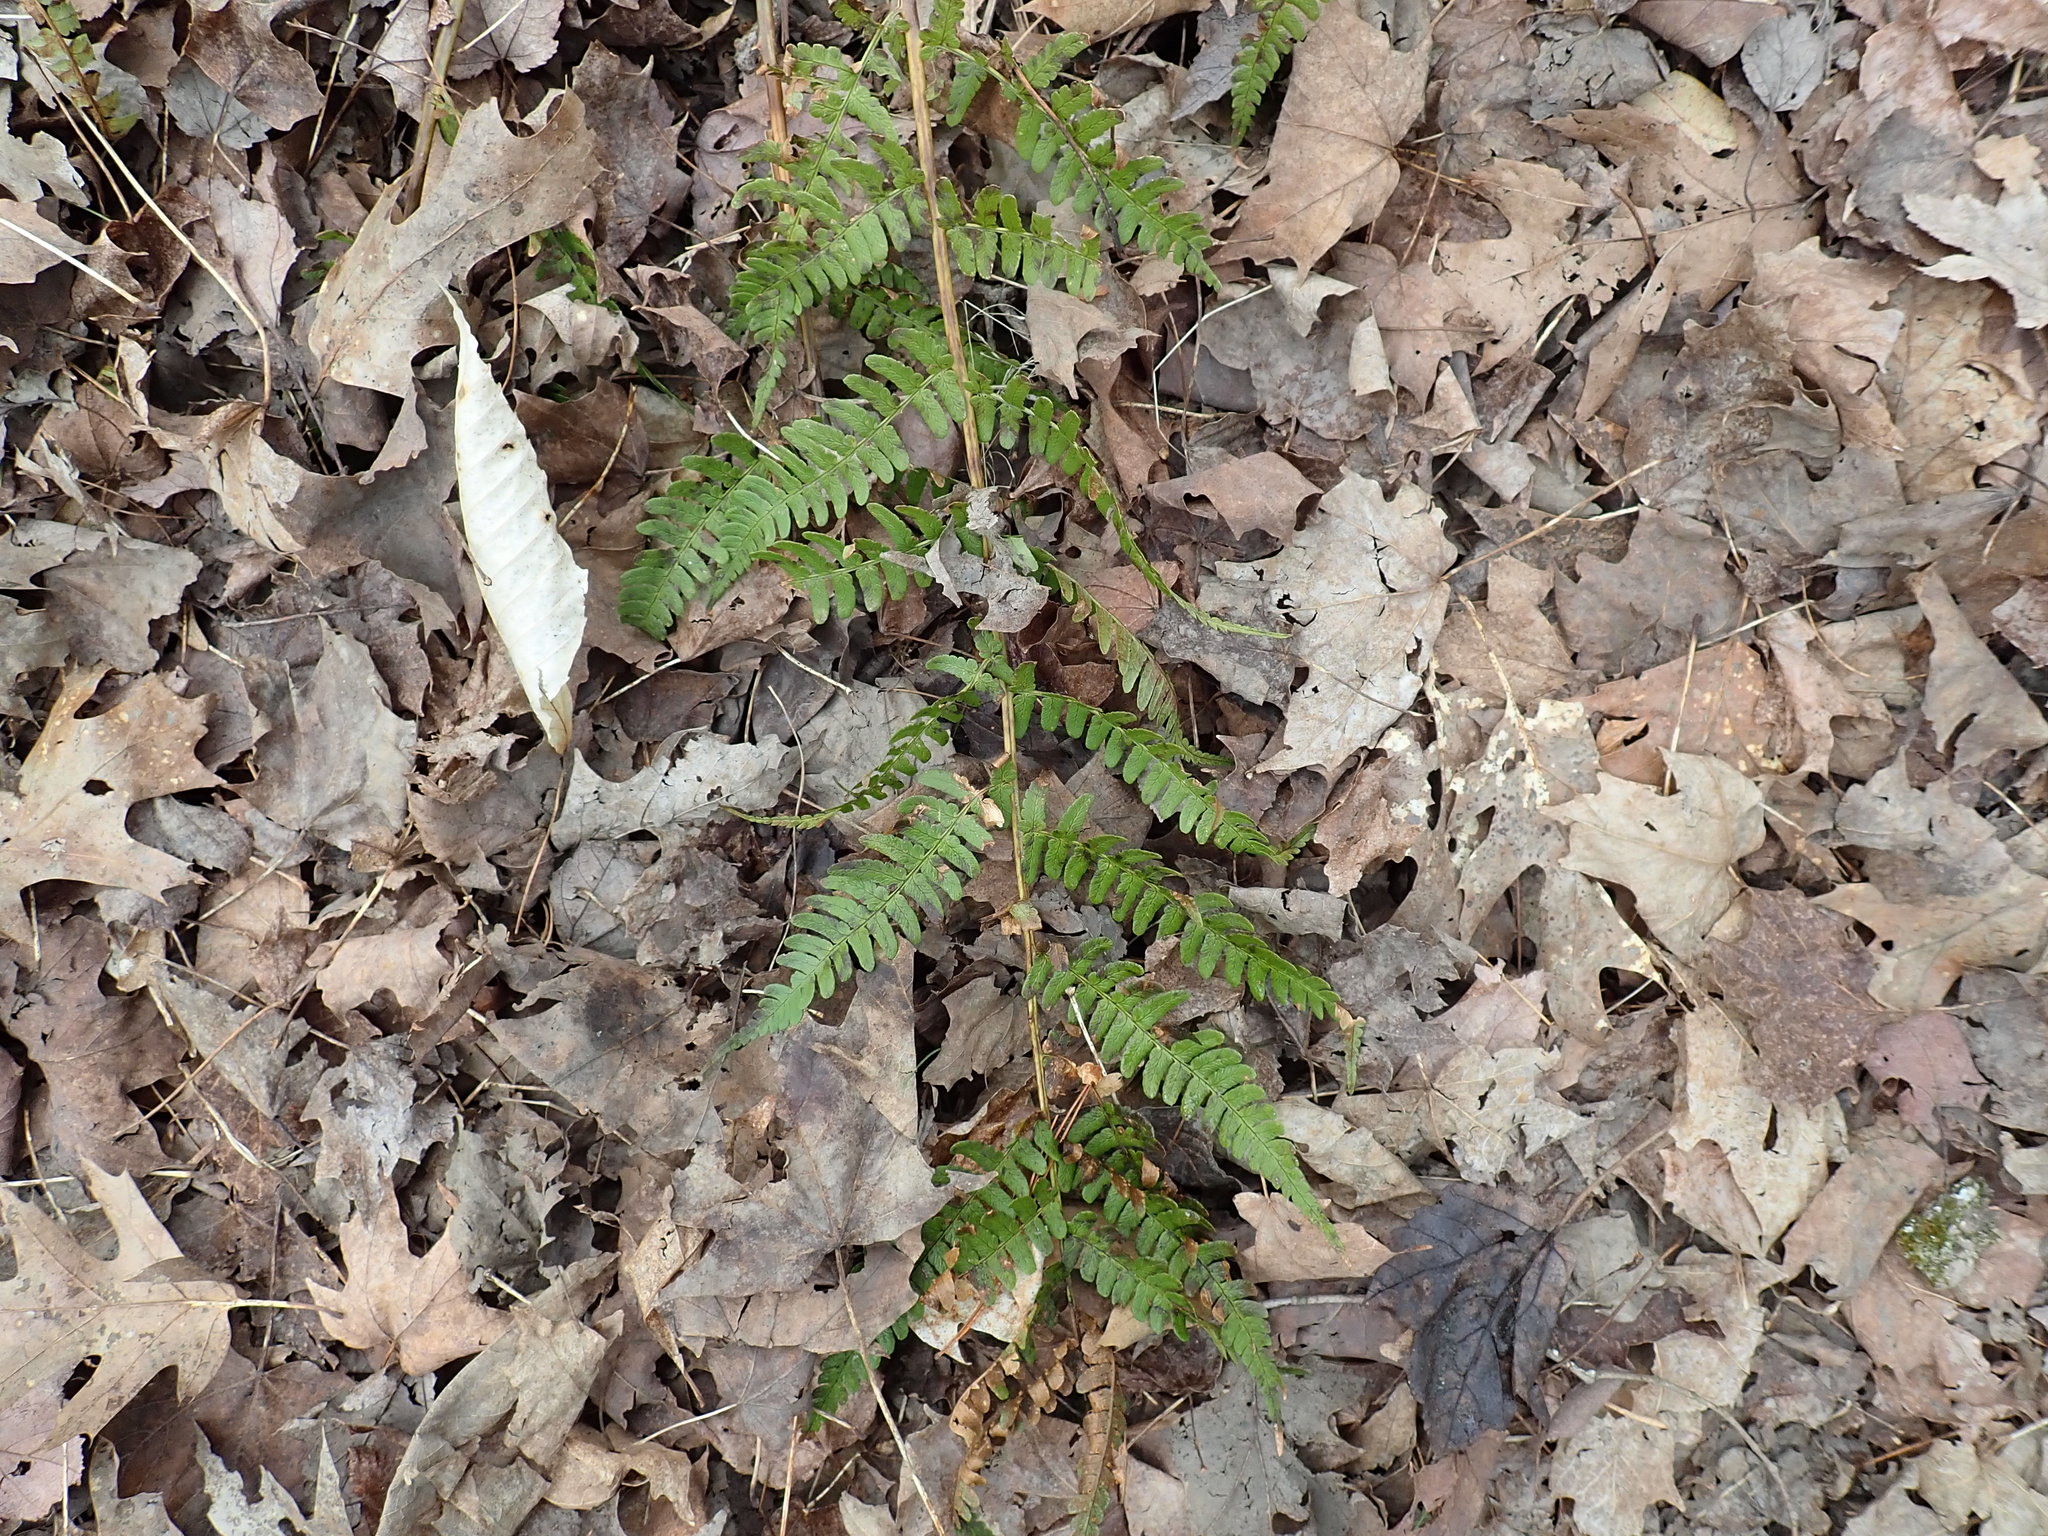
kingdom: Plantae
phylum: Tracheophyta
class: Polypodiopsida
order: Polypodiales
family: Dryopteridaceae
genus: Dryopteris
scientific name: Dryopteris marginalis
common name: Marginal wood fern
